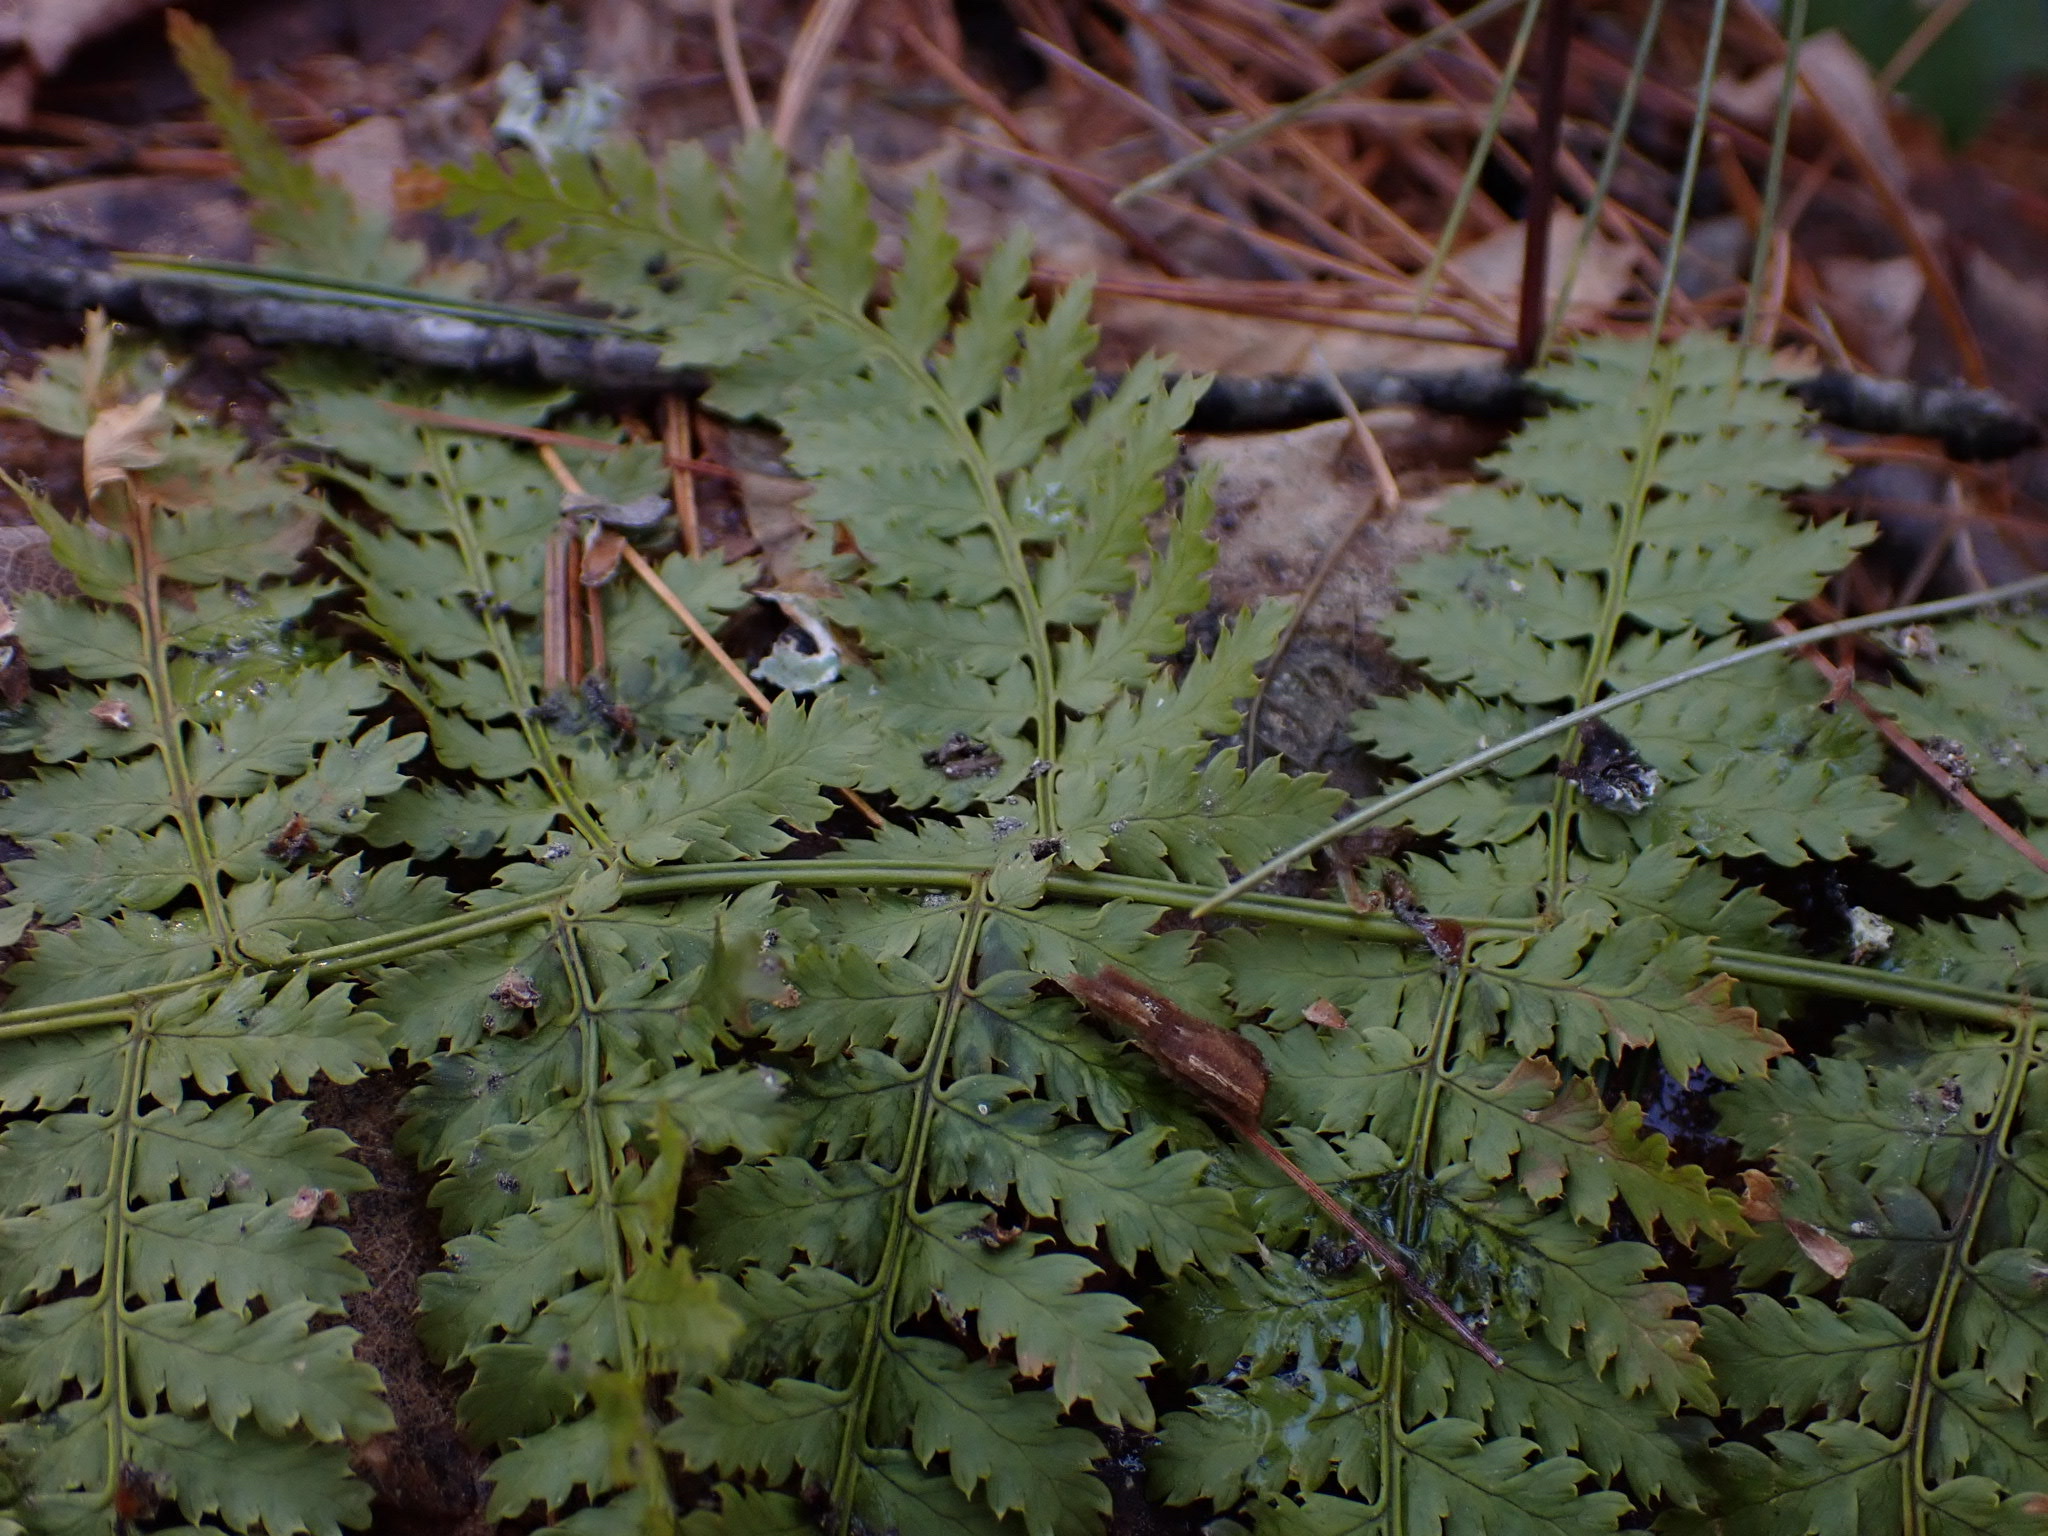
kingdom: Plantae
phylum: Tracheophyta
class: Polypodiopsida
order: Polypodiales
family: Dryopteridaceae
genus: Dryopteris
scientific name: Dryopteris intermedia
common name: Evergreen wood fern
